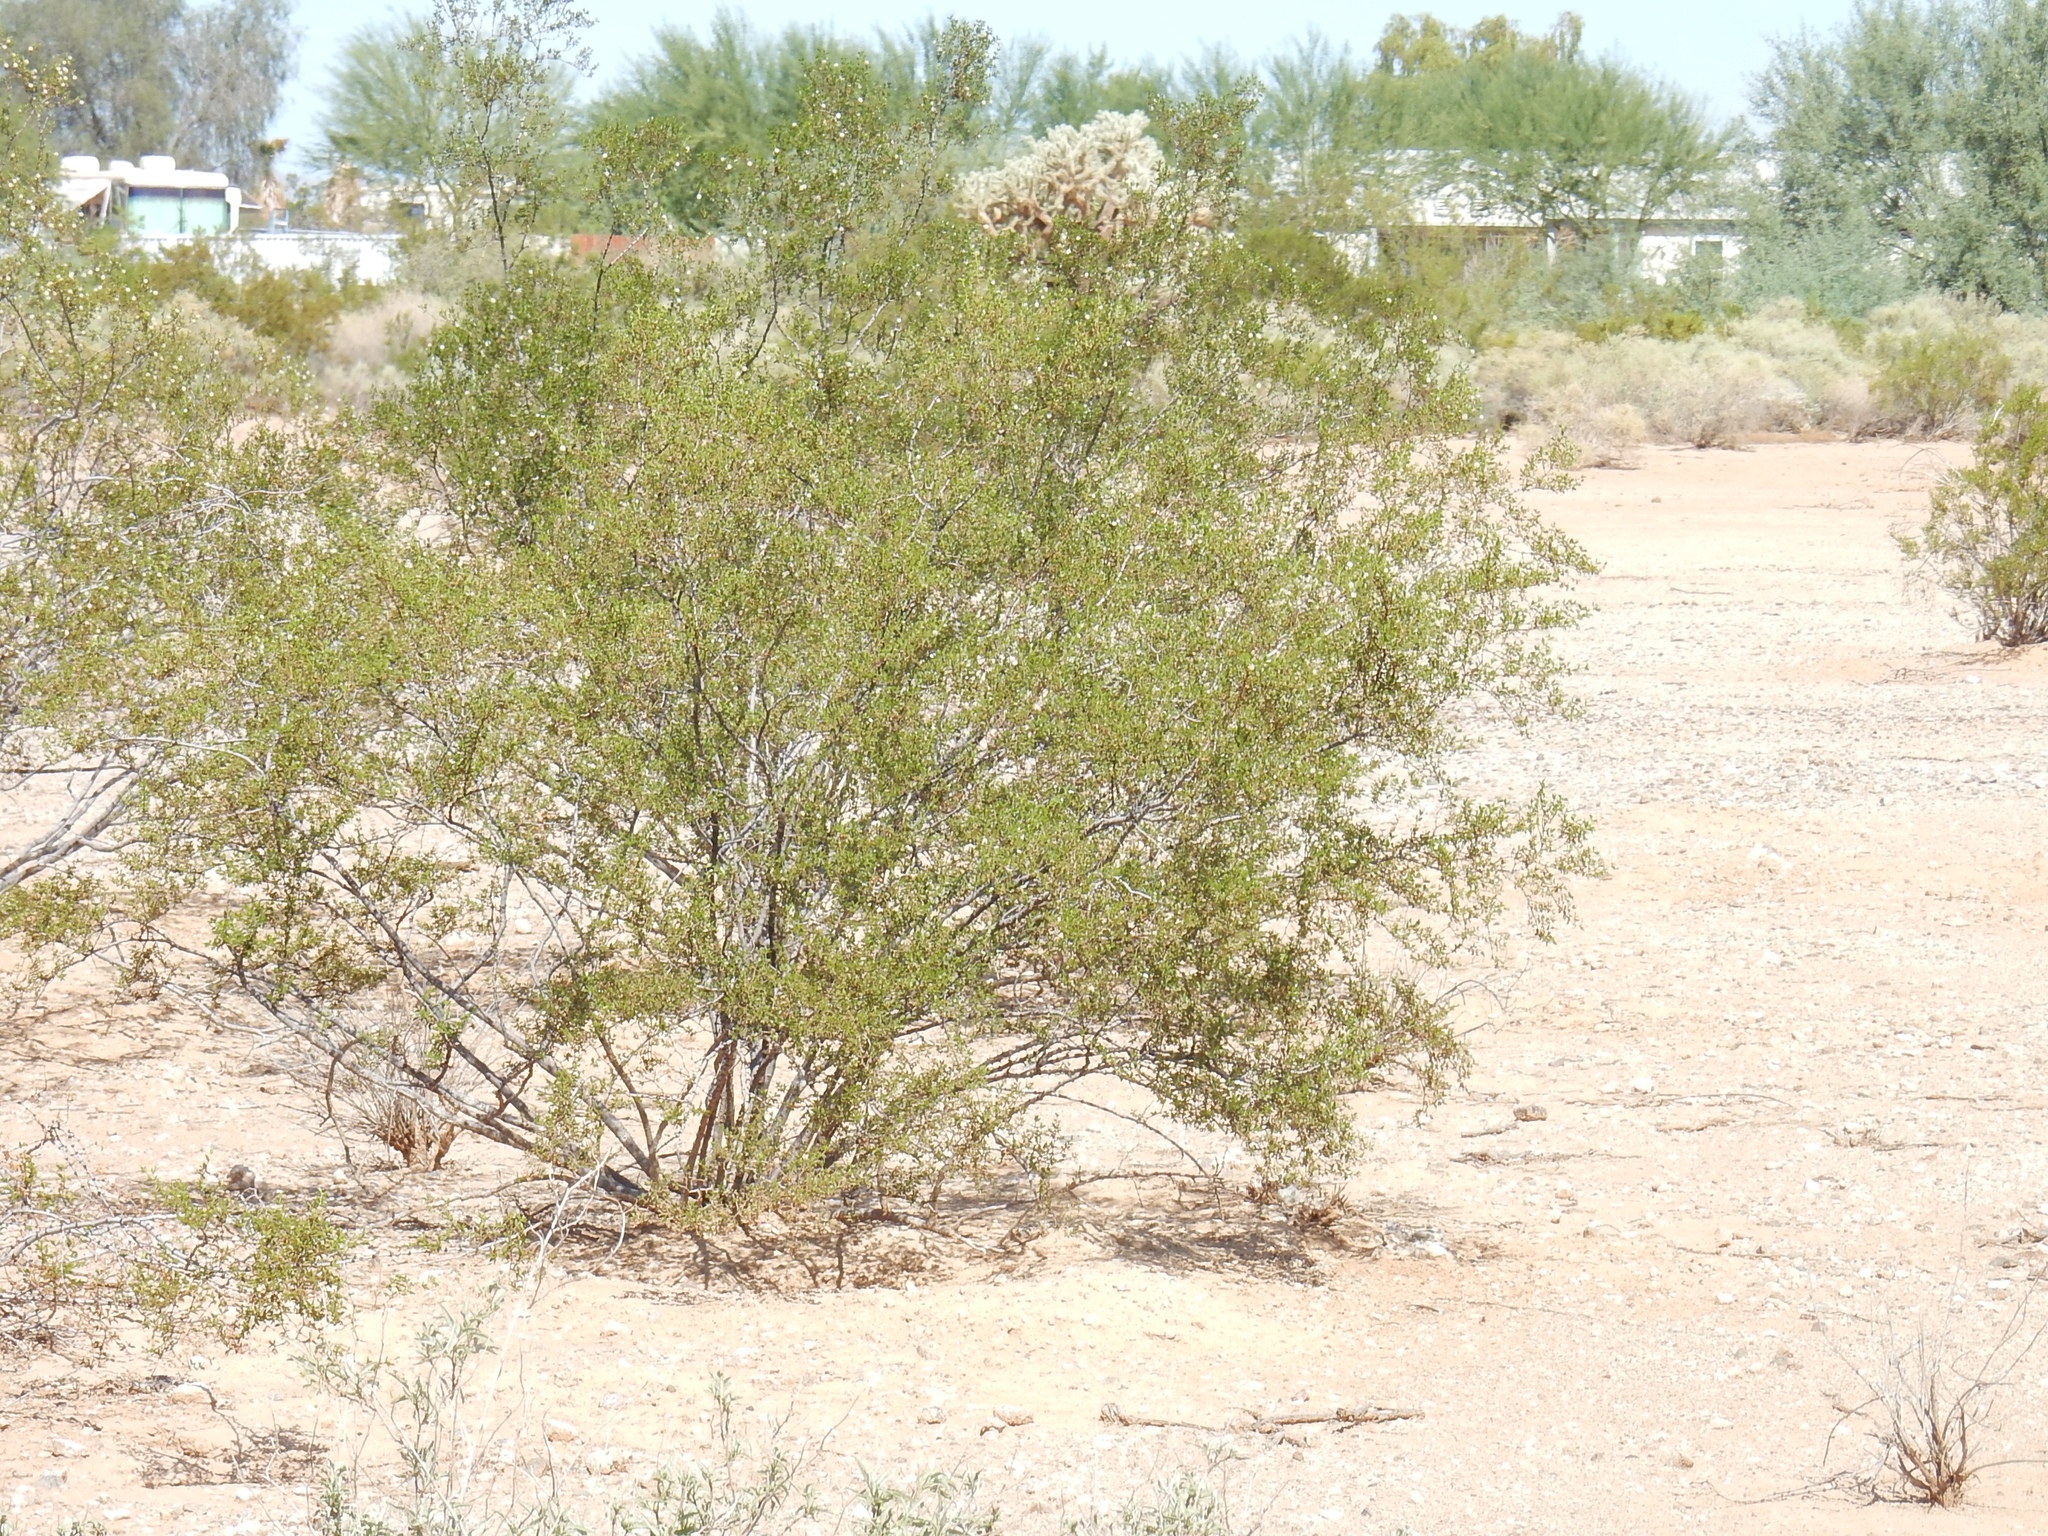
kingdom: Plantae
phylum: Tracheophyta
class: Magnoliopsida
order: Zygophyllales
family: Zygophyllaceae
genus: Larrea
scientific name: Larrea tridentata
